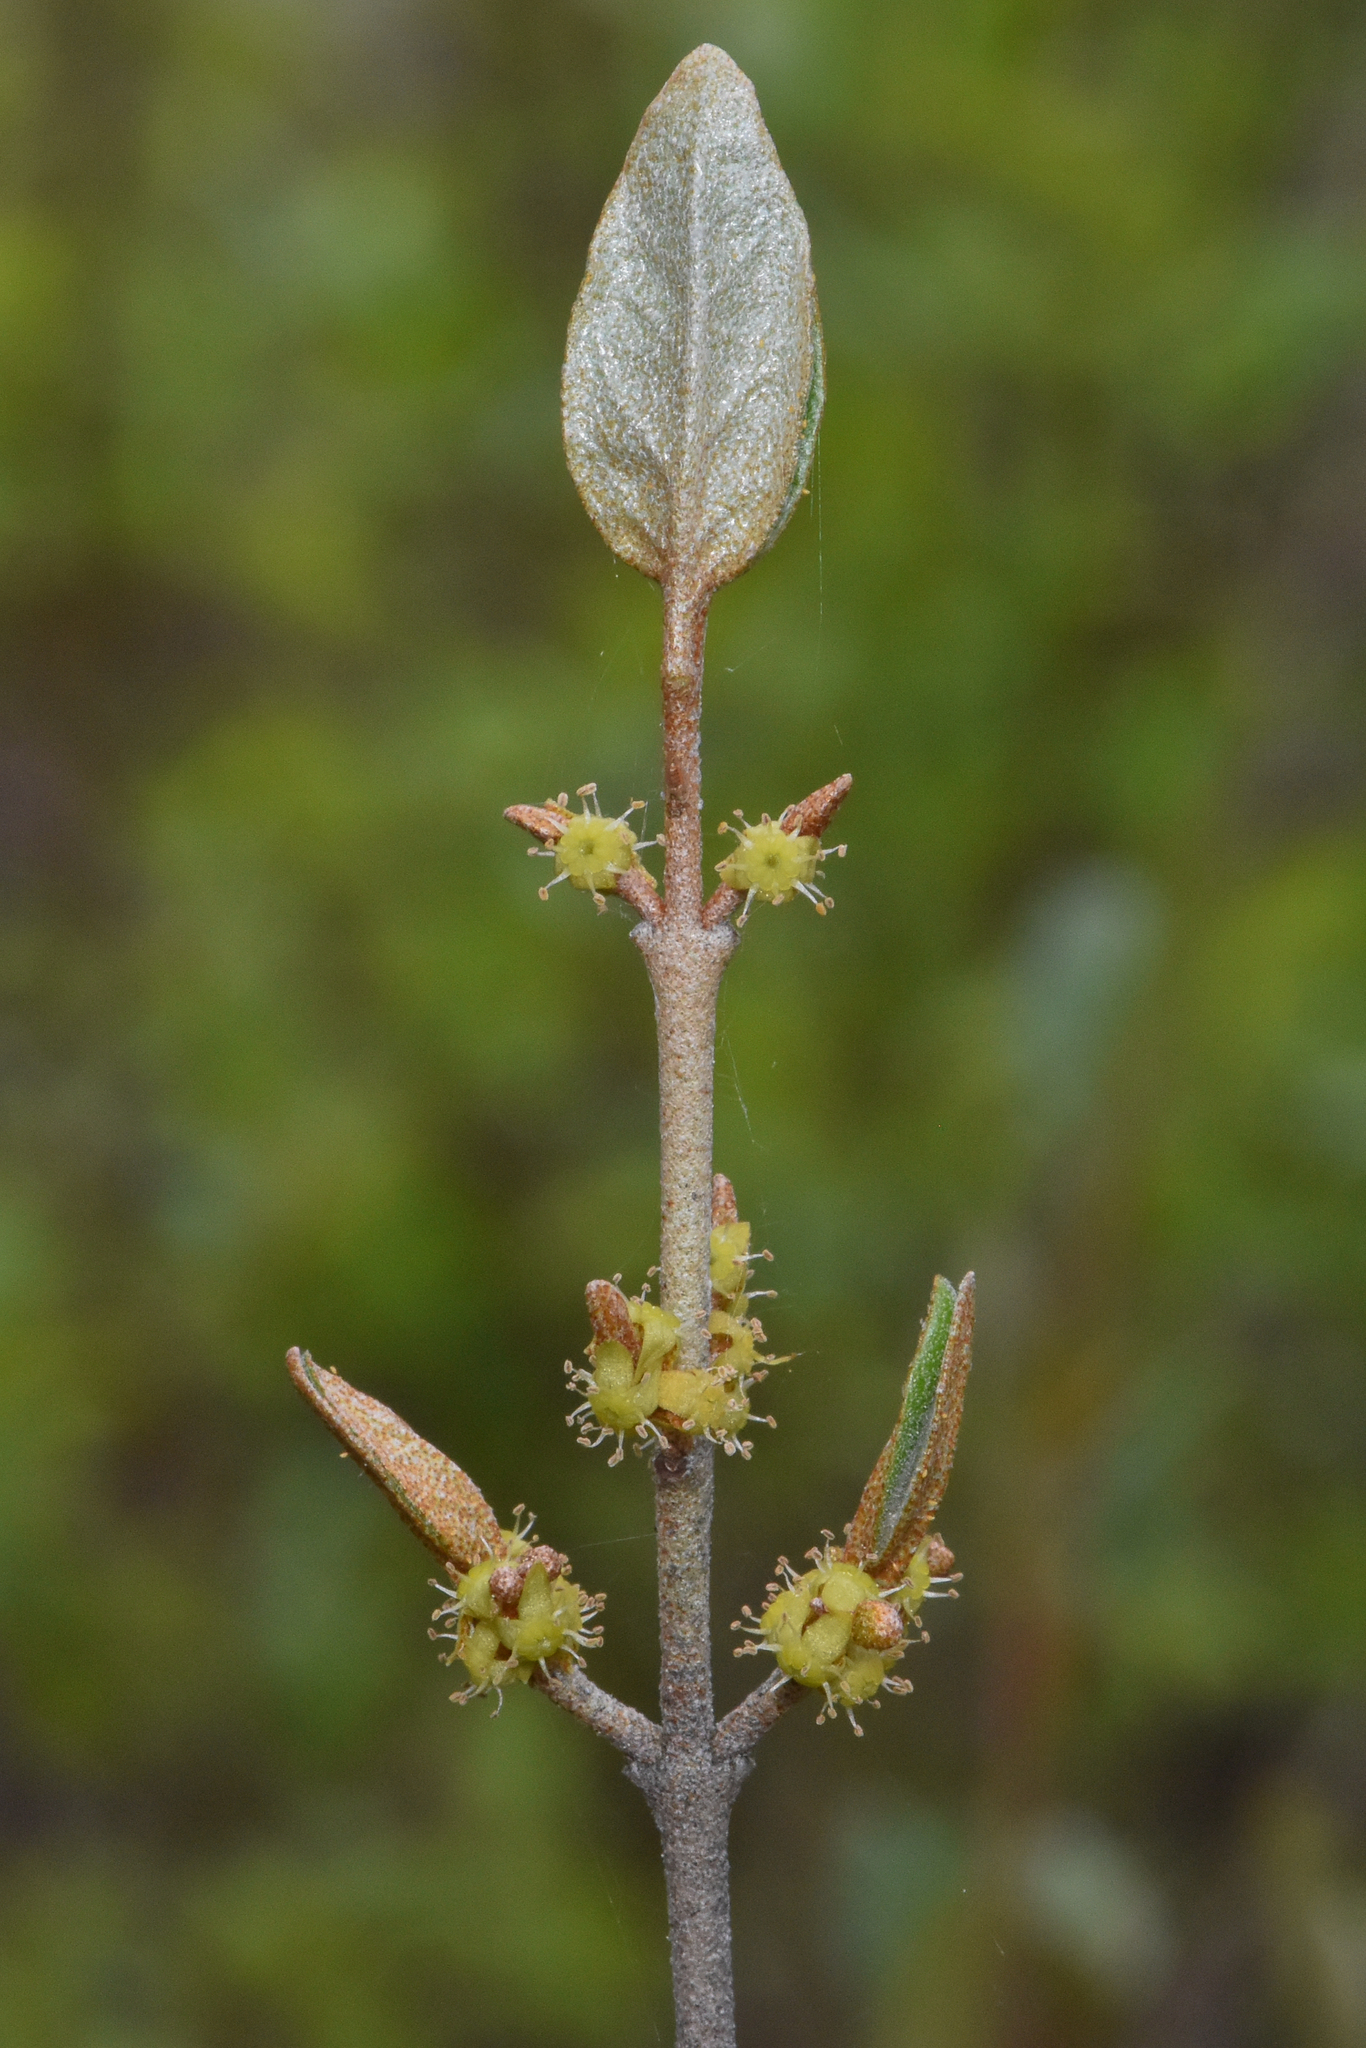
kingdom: Plantae
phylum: Tracheophyta
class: Magnoliopsida
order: Rosales
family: Elaeagnaceae
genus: Shepherdia
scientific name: Shepherdia canadensis
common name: Soapberry
